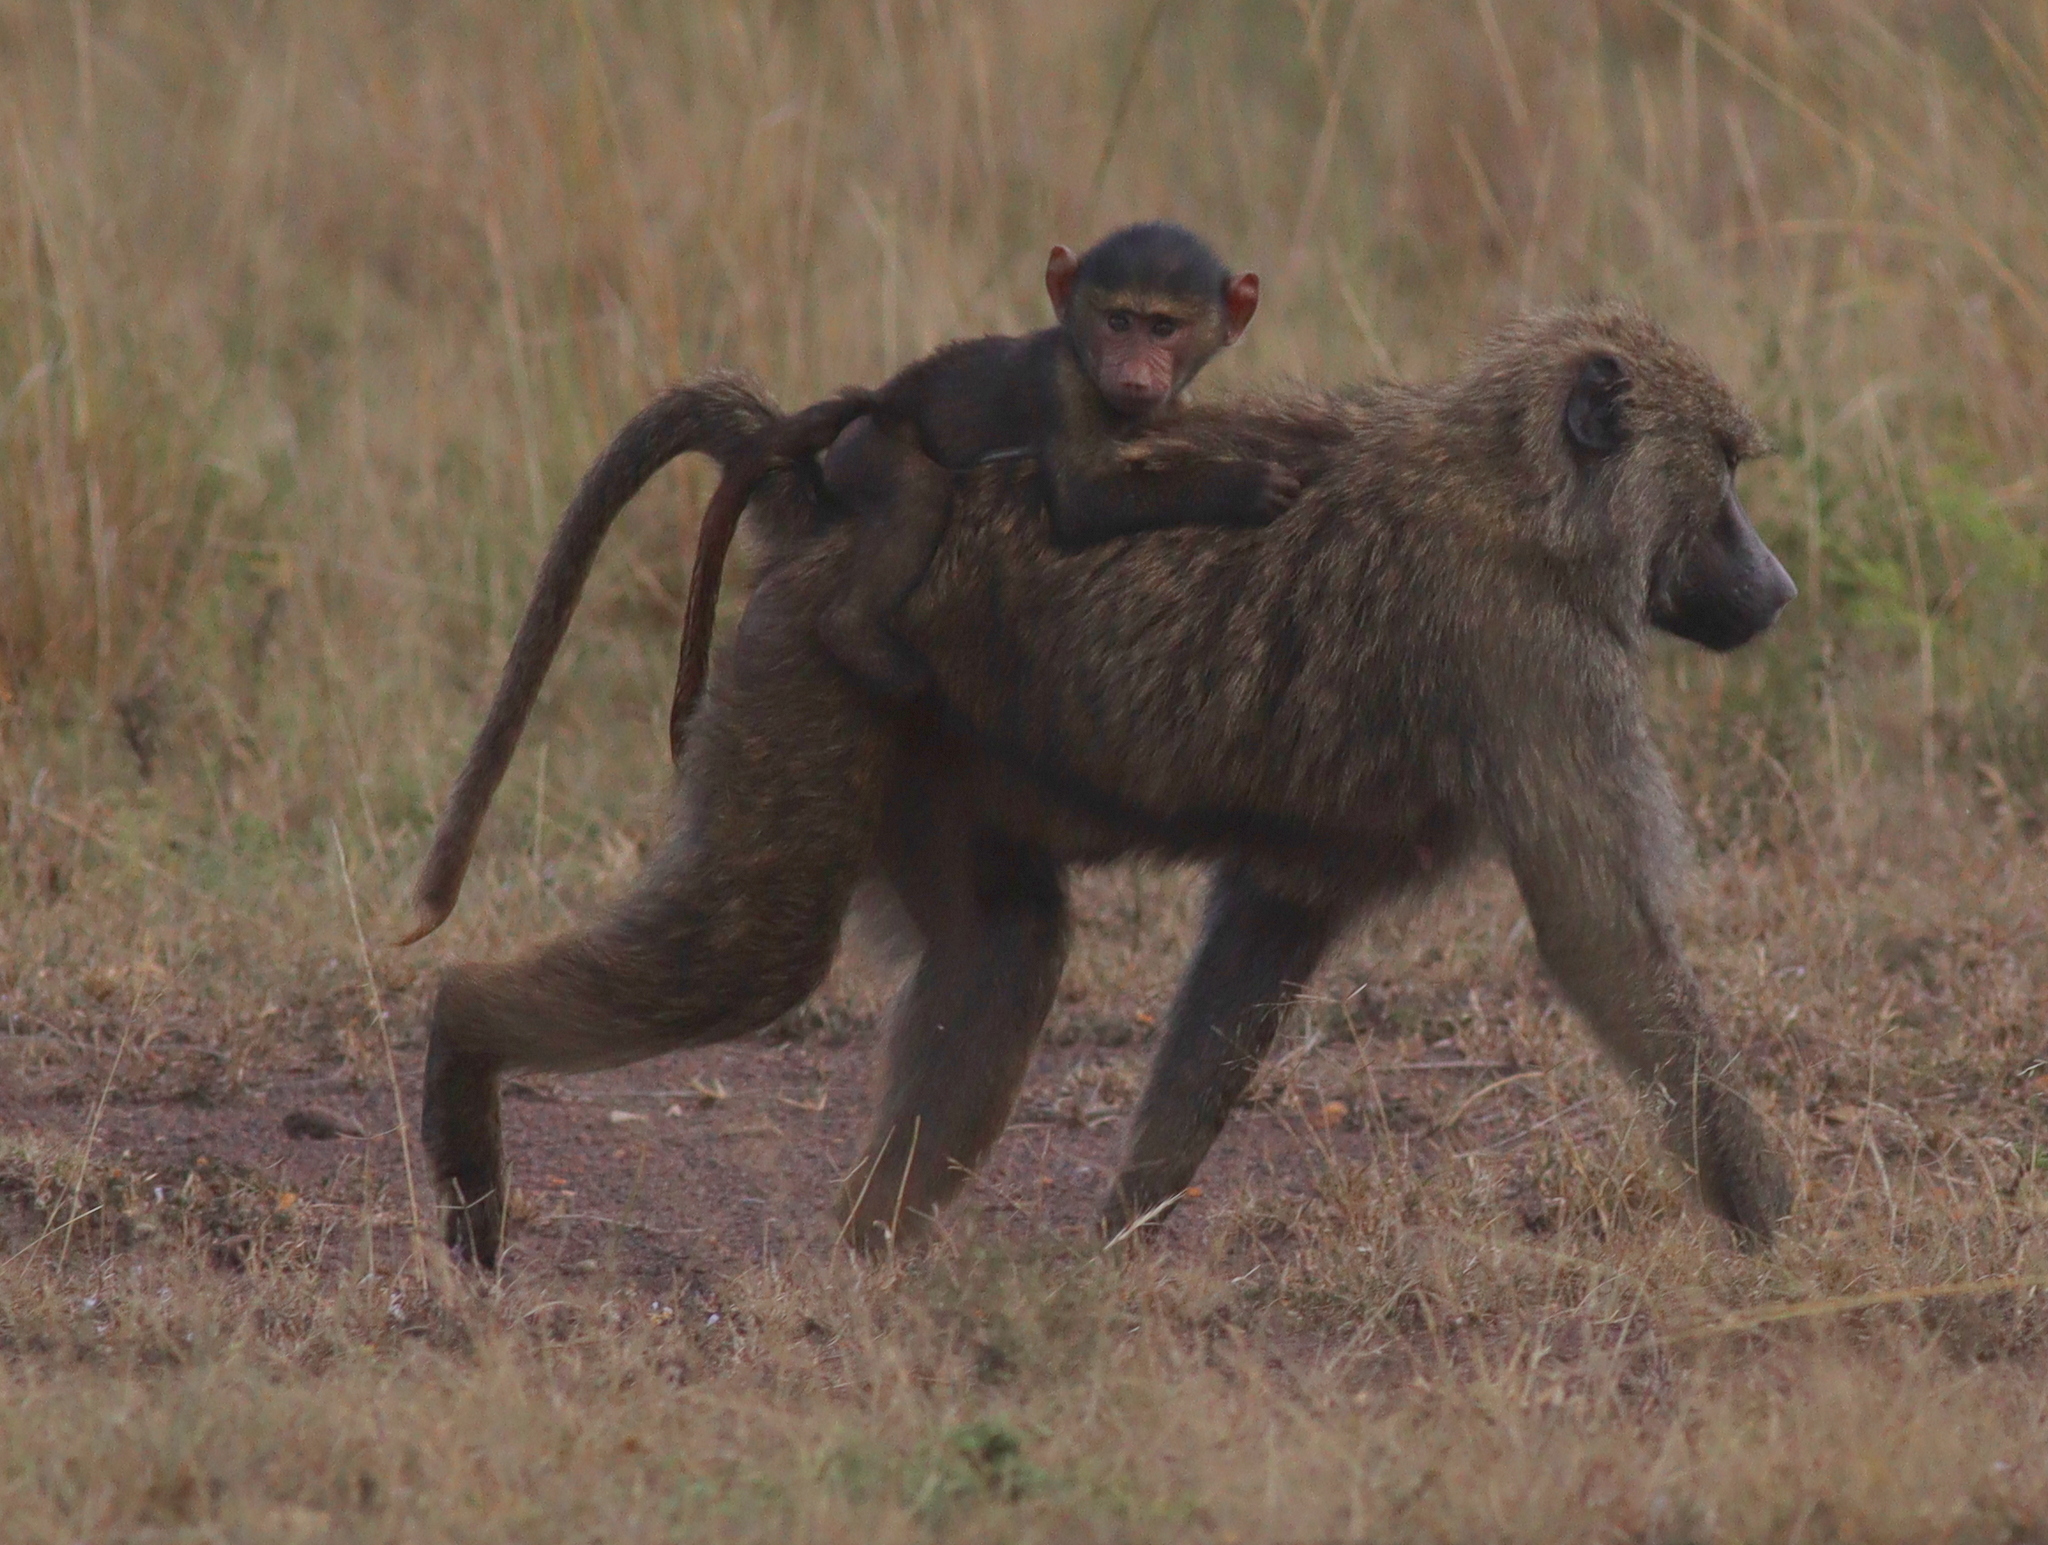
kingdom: Animalia
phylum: Chordata
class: Mammalia
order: Primates
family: Cercopithecidae
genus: Papio
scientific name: Papio anubis
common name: Olive baboon
